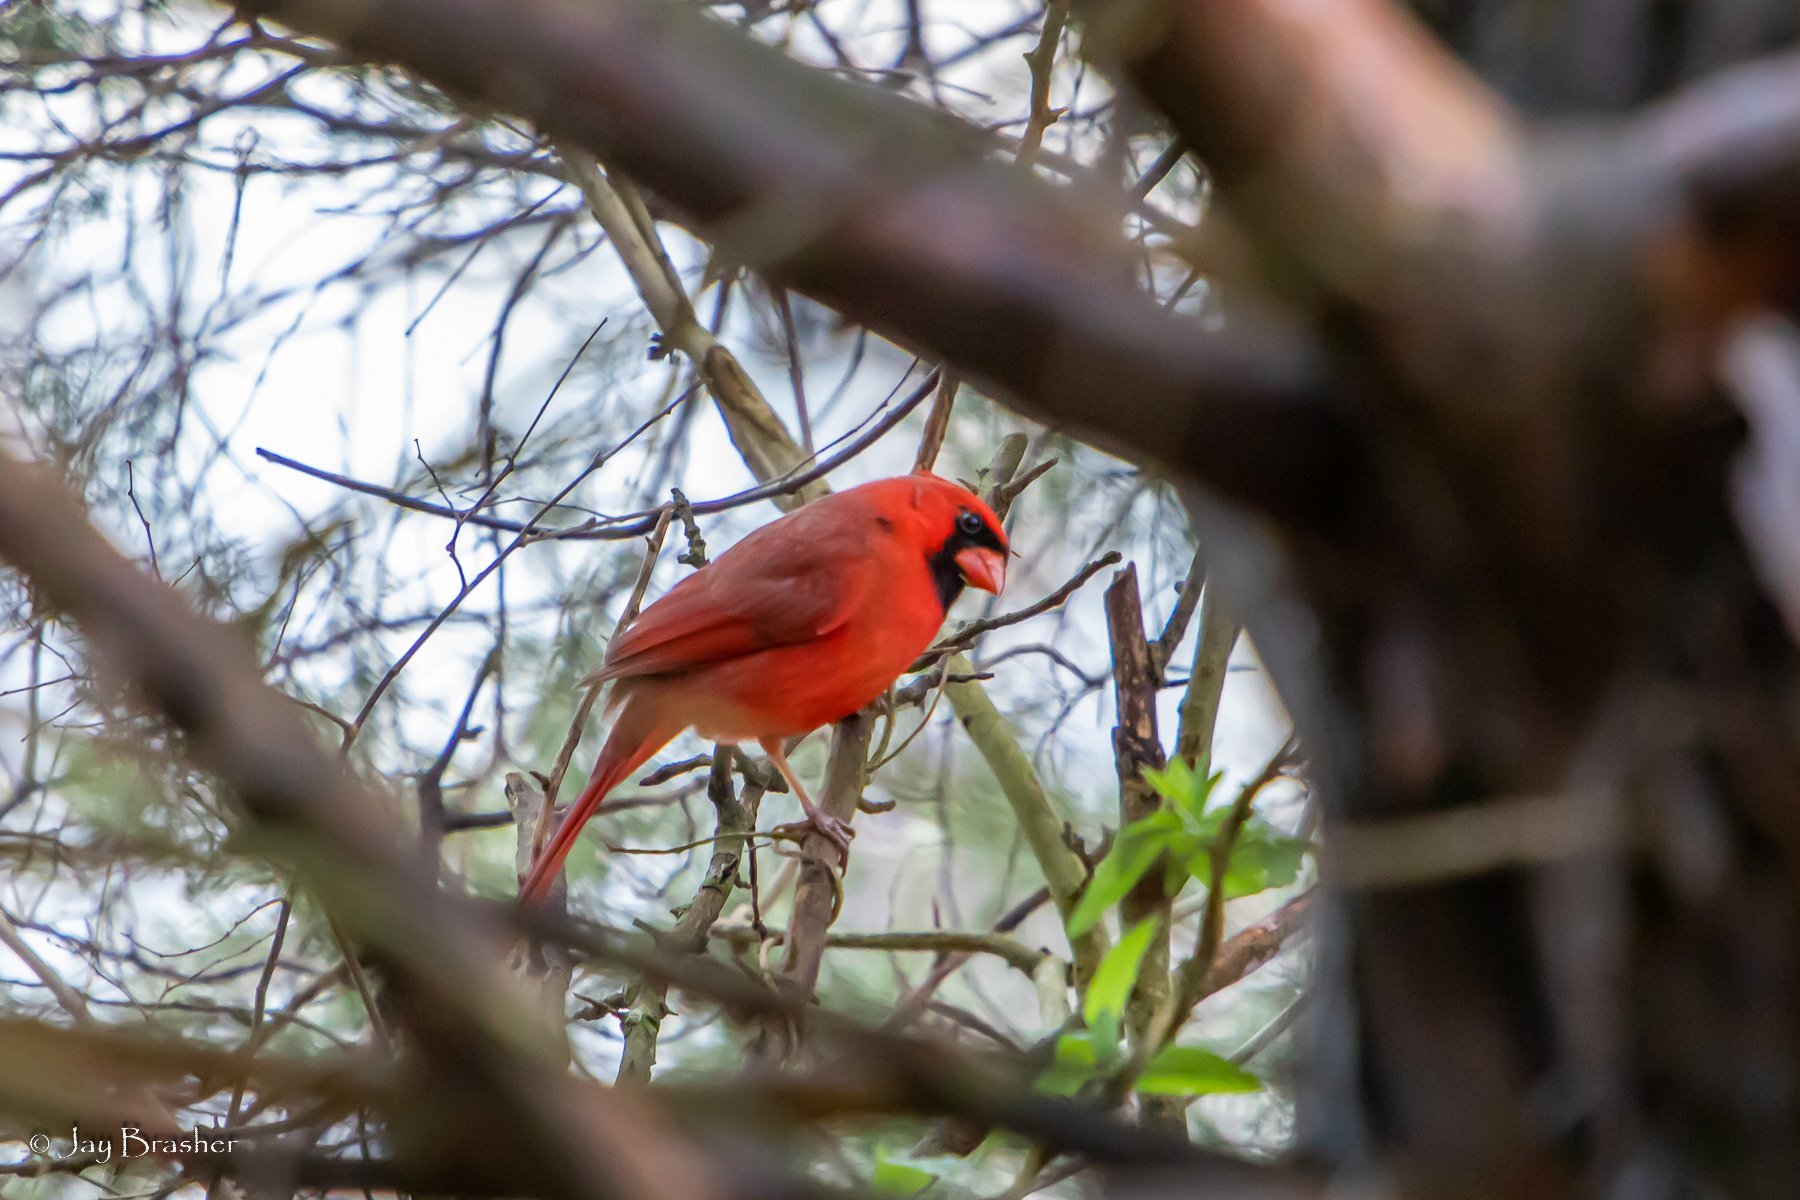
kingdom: Animalia
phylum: Chordata
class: Aves
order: Passeriformes
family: Cardinalidae
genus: Cardinalis
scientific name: Cardinalis cardinalis
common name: Northern cardinal
